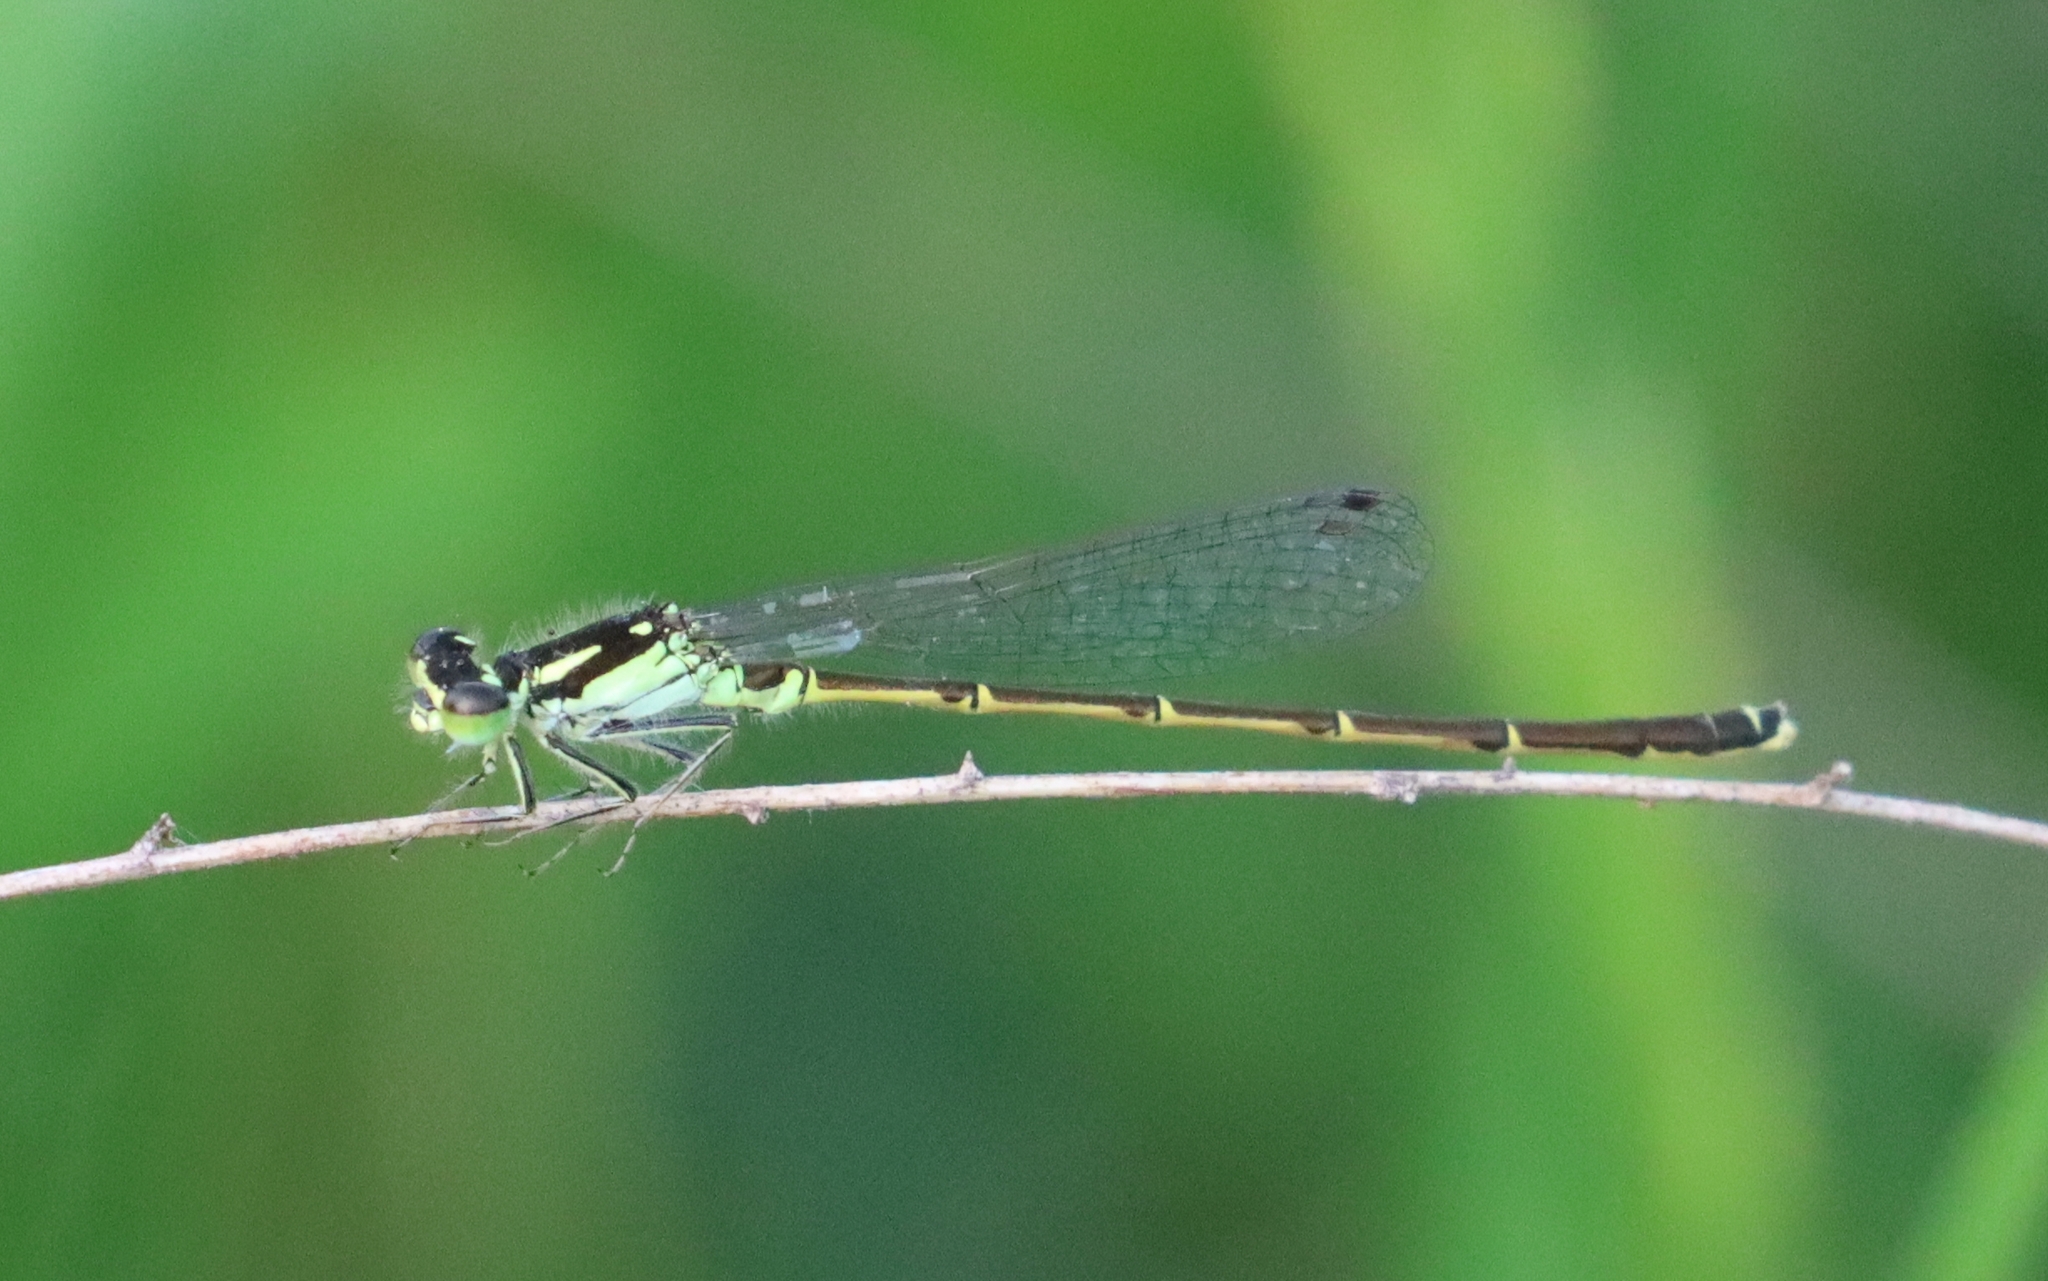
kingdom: Animalia
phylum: Arthropoda
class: Insecta
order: Odonata
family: Coenagrionidae
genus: Ischnura
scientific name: Ischnura posita
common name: Fragile forktail
